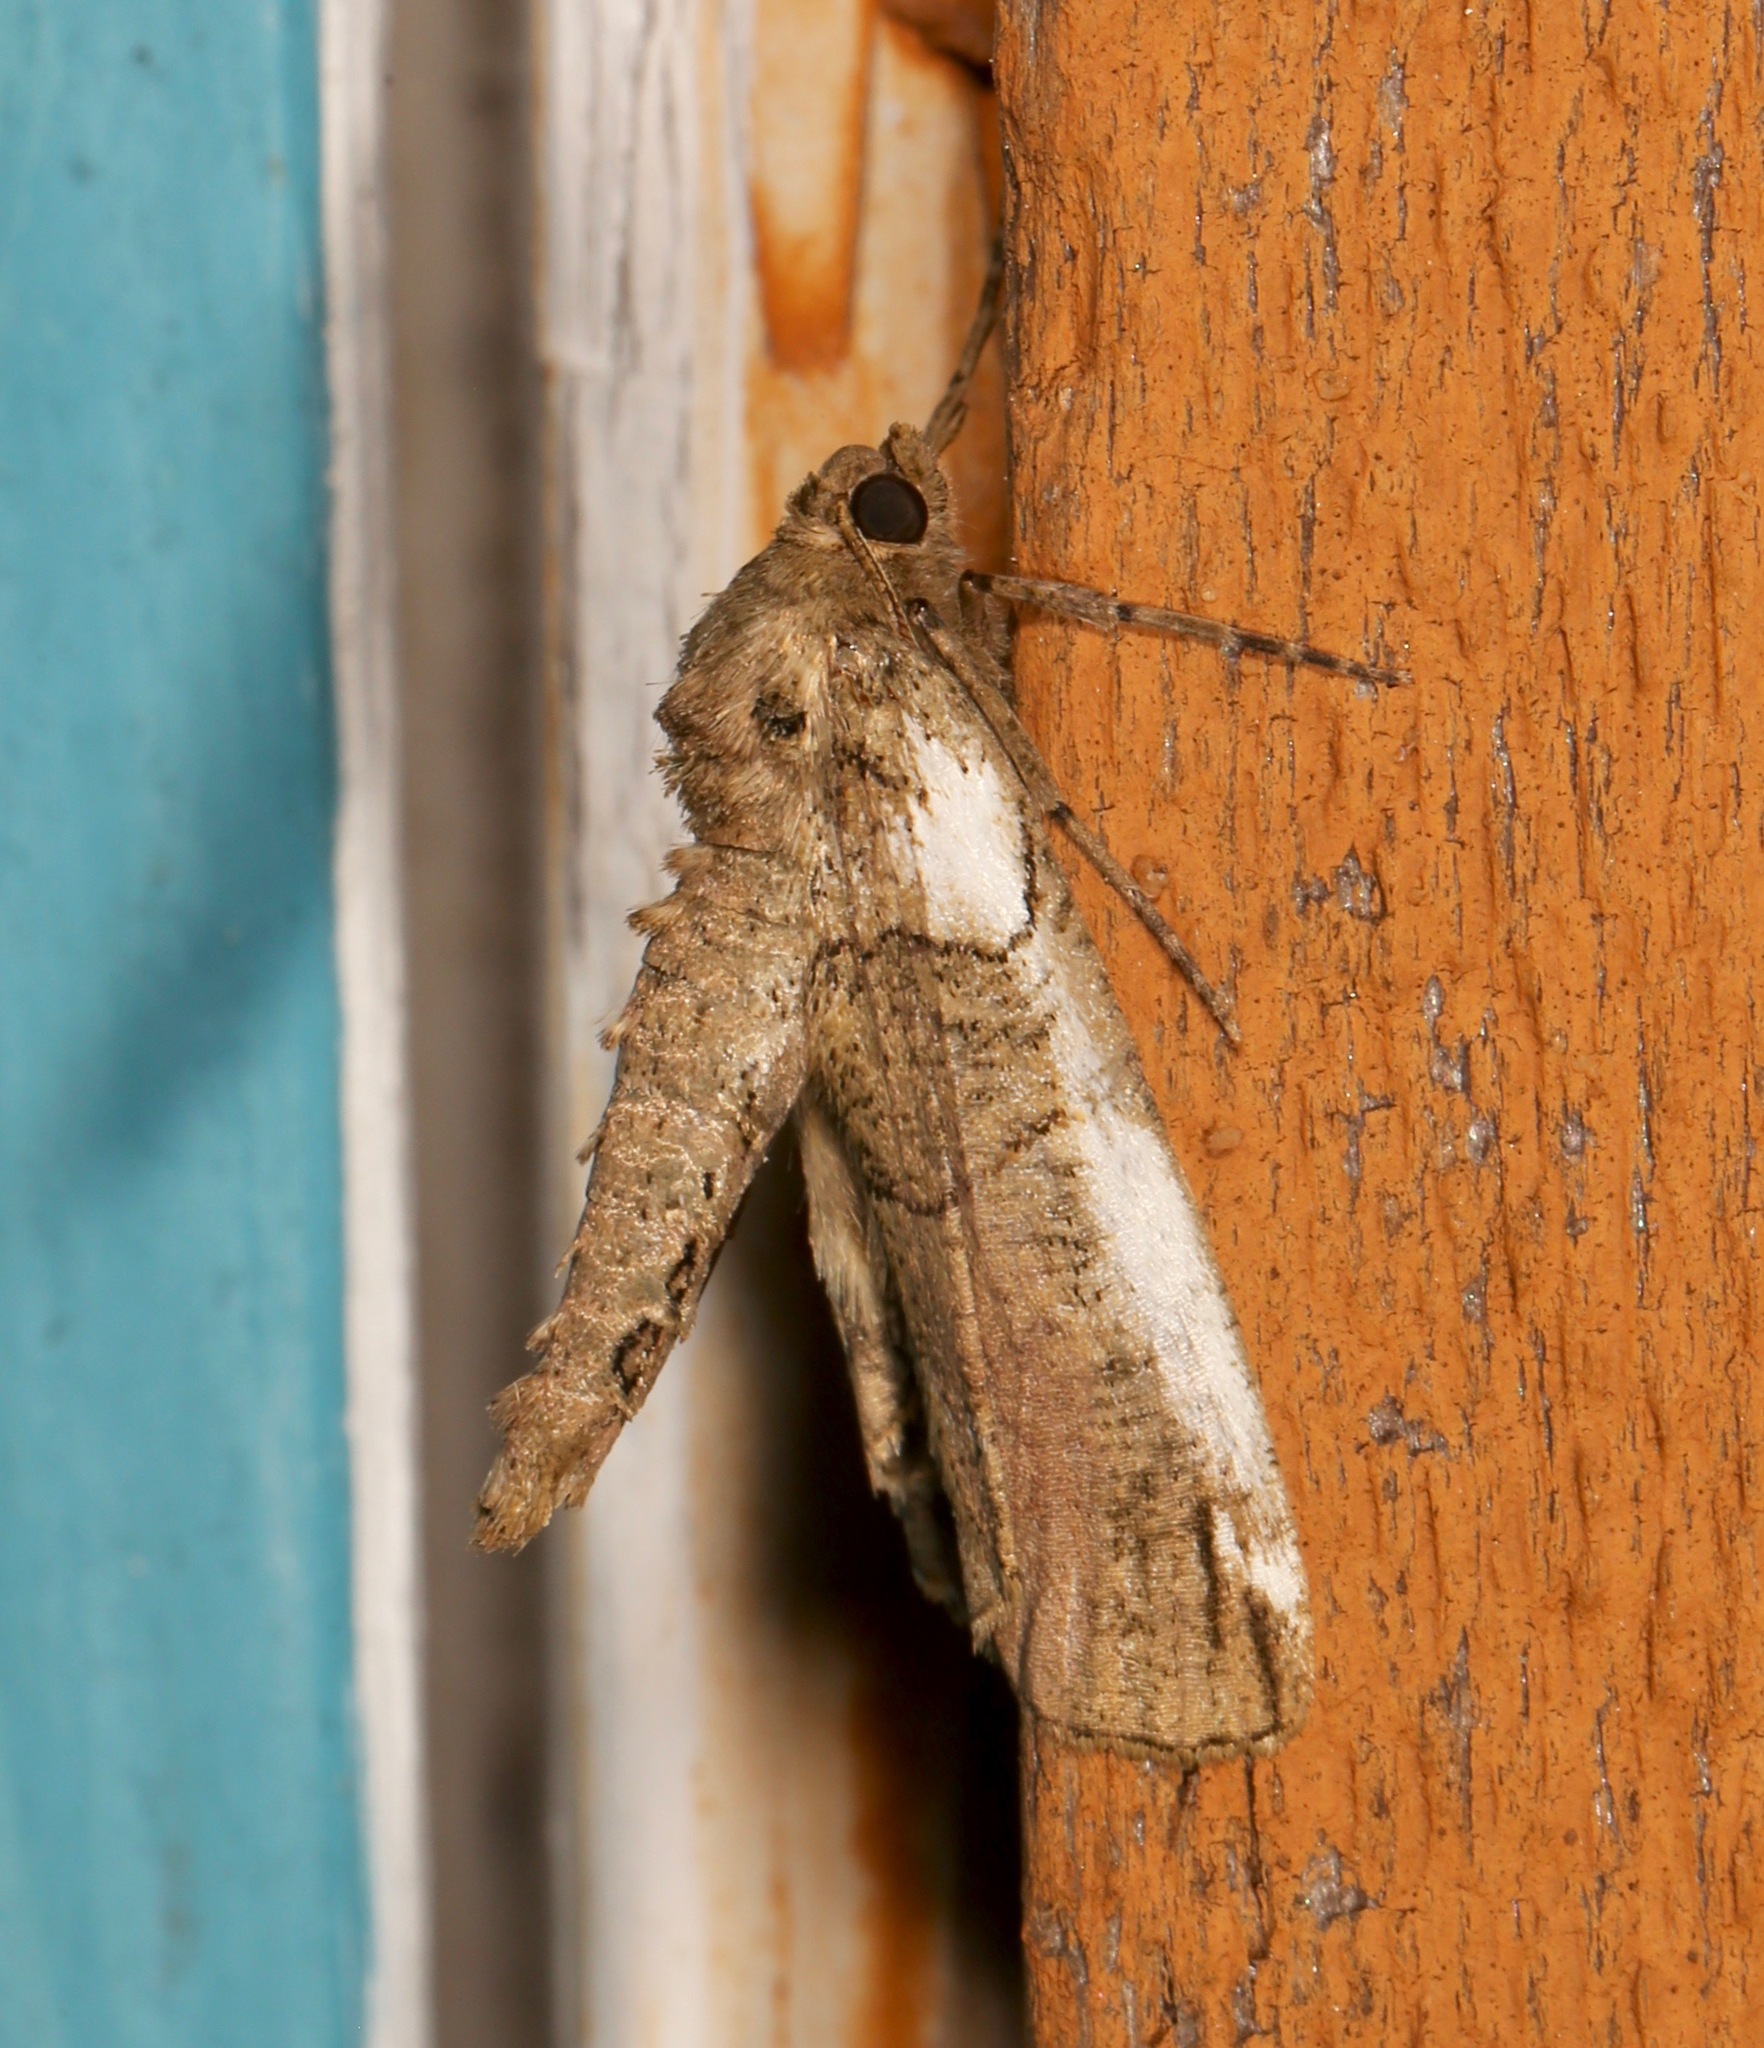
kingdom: Animalia
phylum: Arthropoda
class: Insecta
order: Lepidoptera
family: Geometridae
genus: Ceratonyx
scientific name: Ceratonyx satanaria
